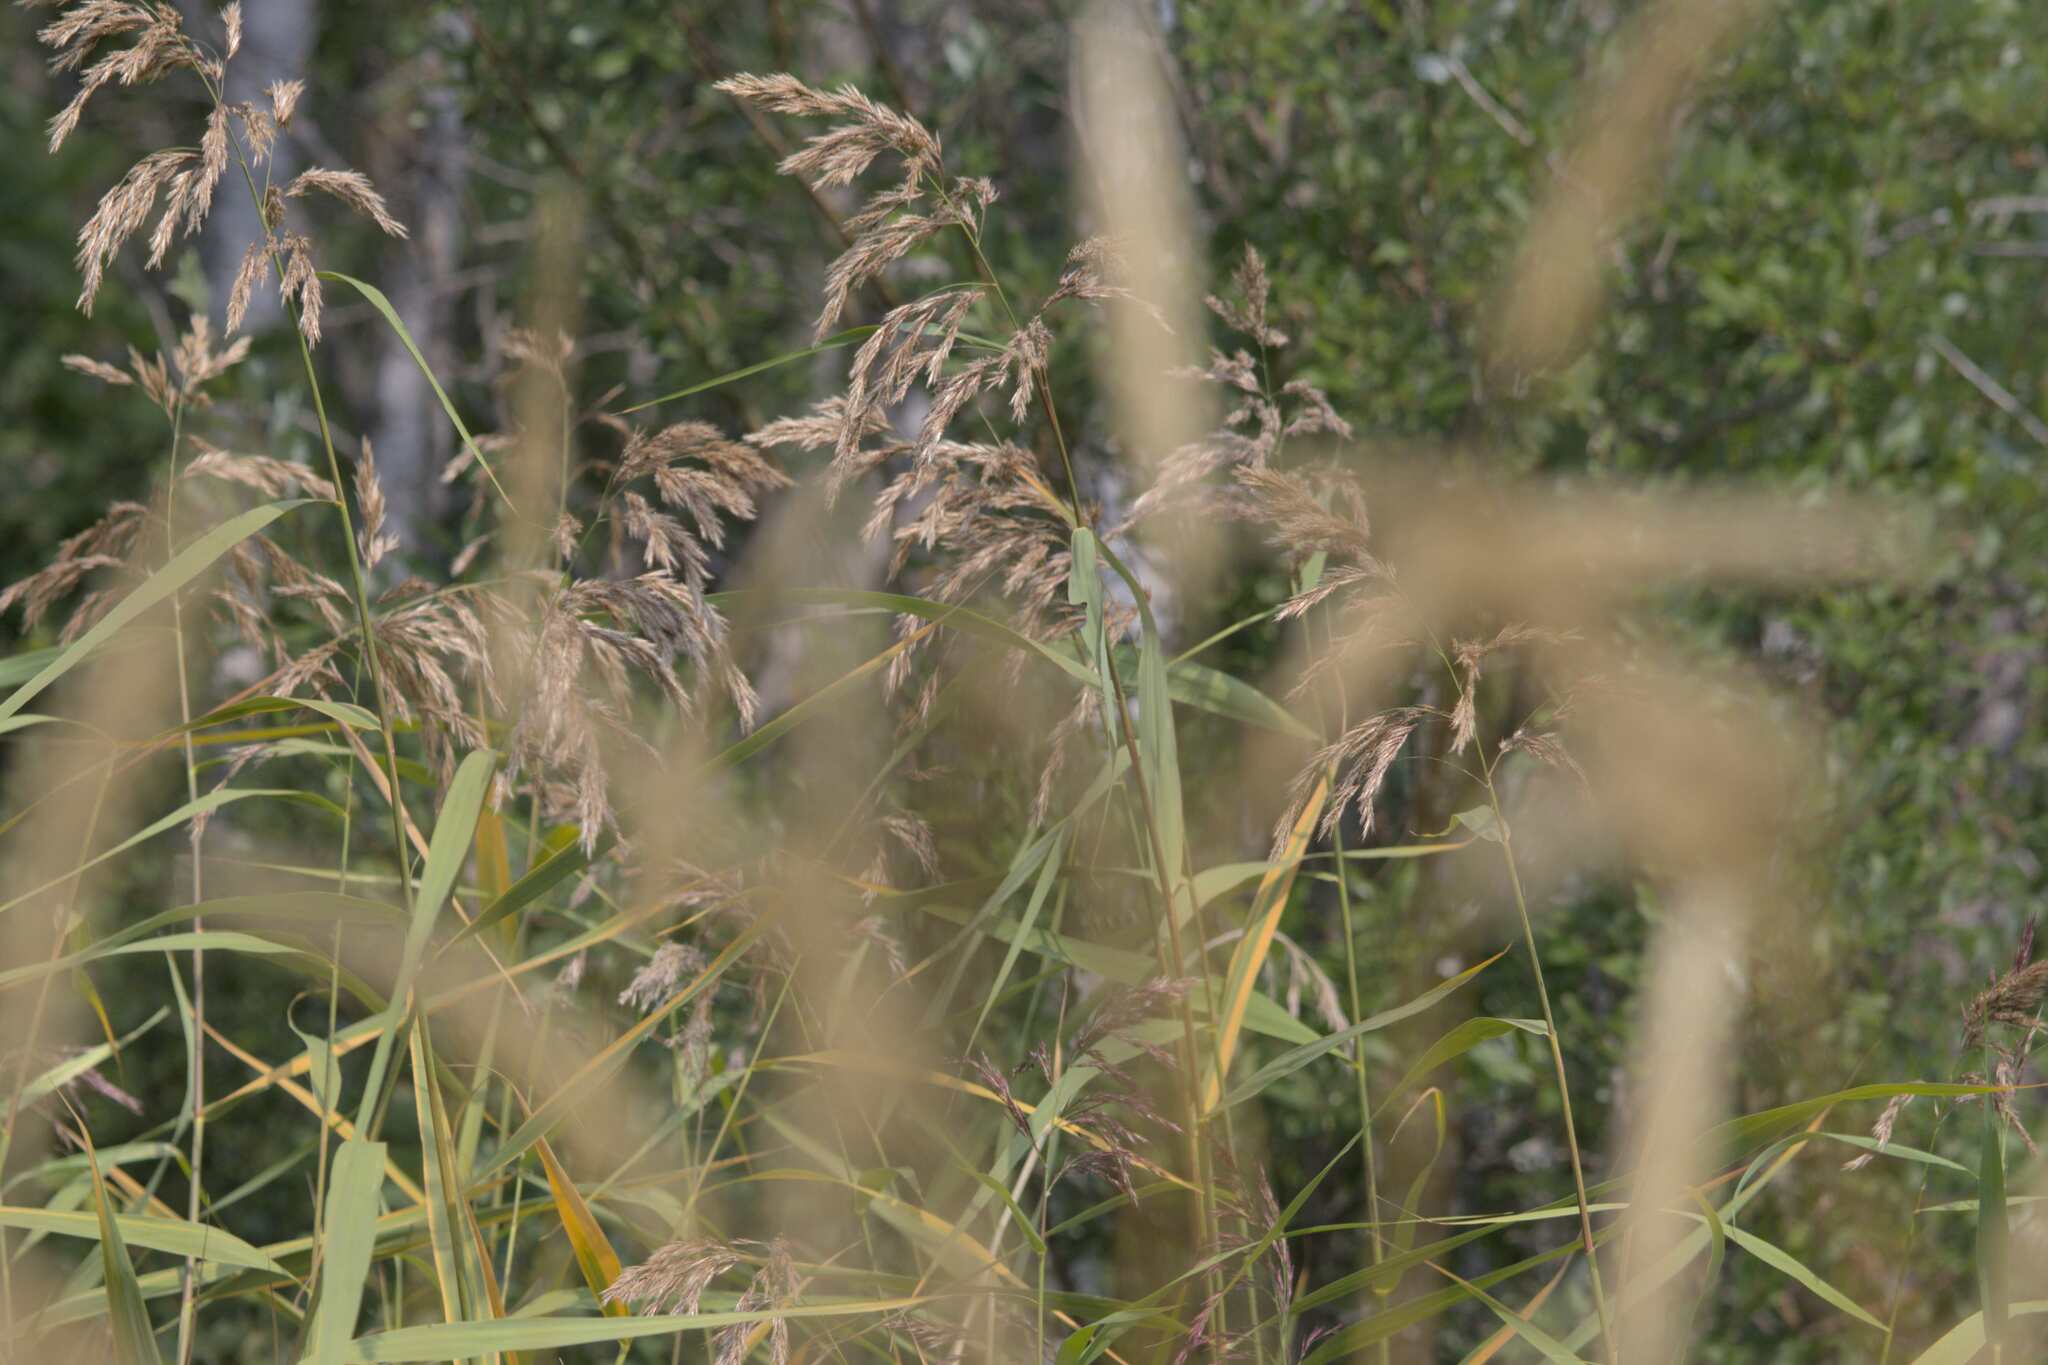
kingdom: Plantae
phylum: Tracheophyta
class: Liliopsida
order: Poales
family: Poaceae
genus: Phragmites
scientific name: Phragmites australis
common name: Common reed
